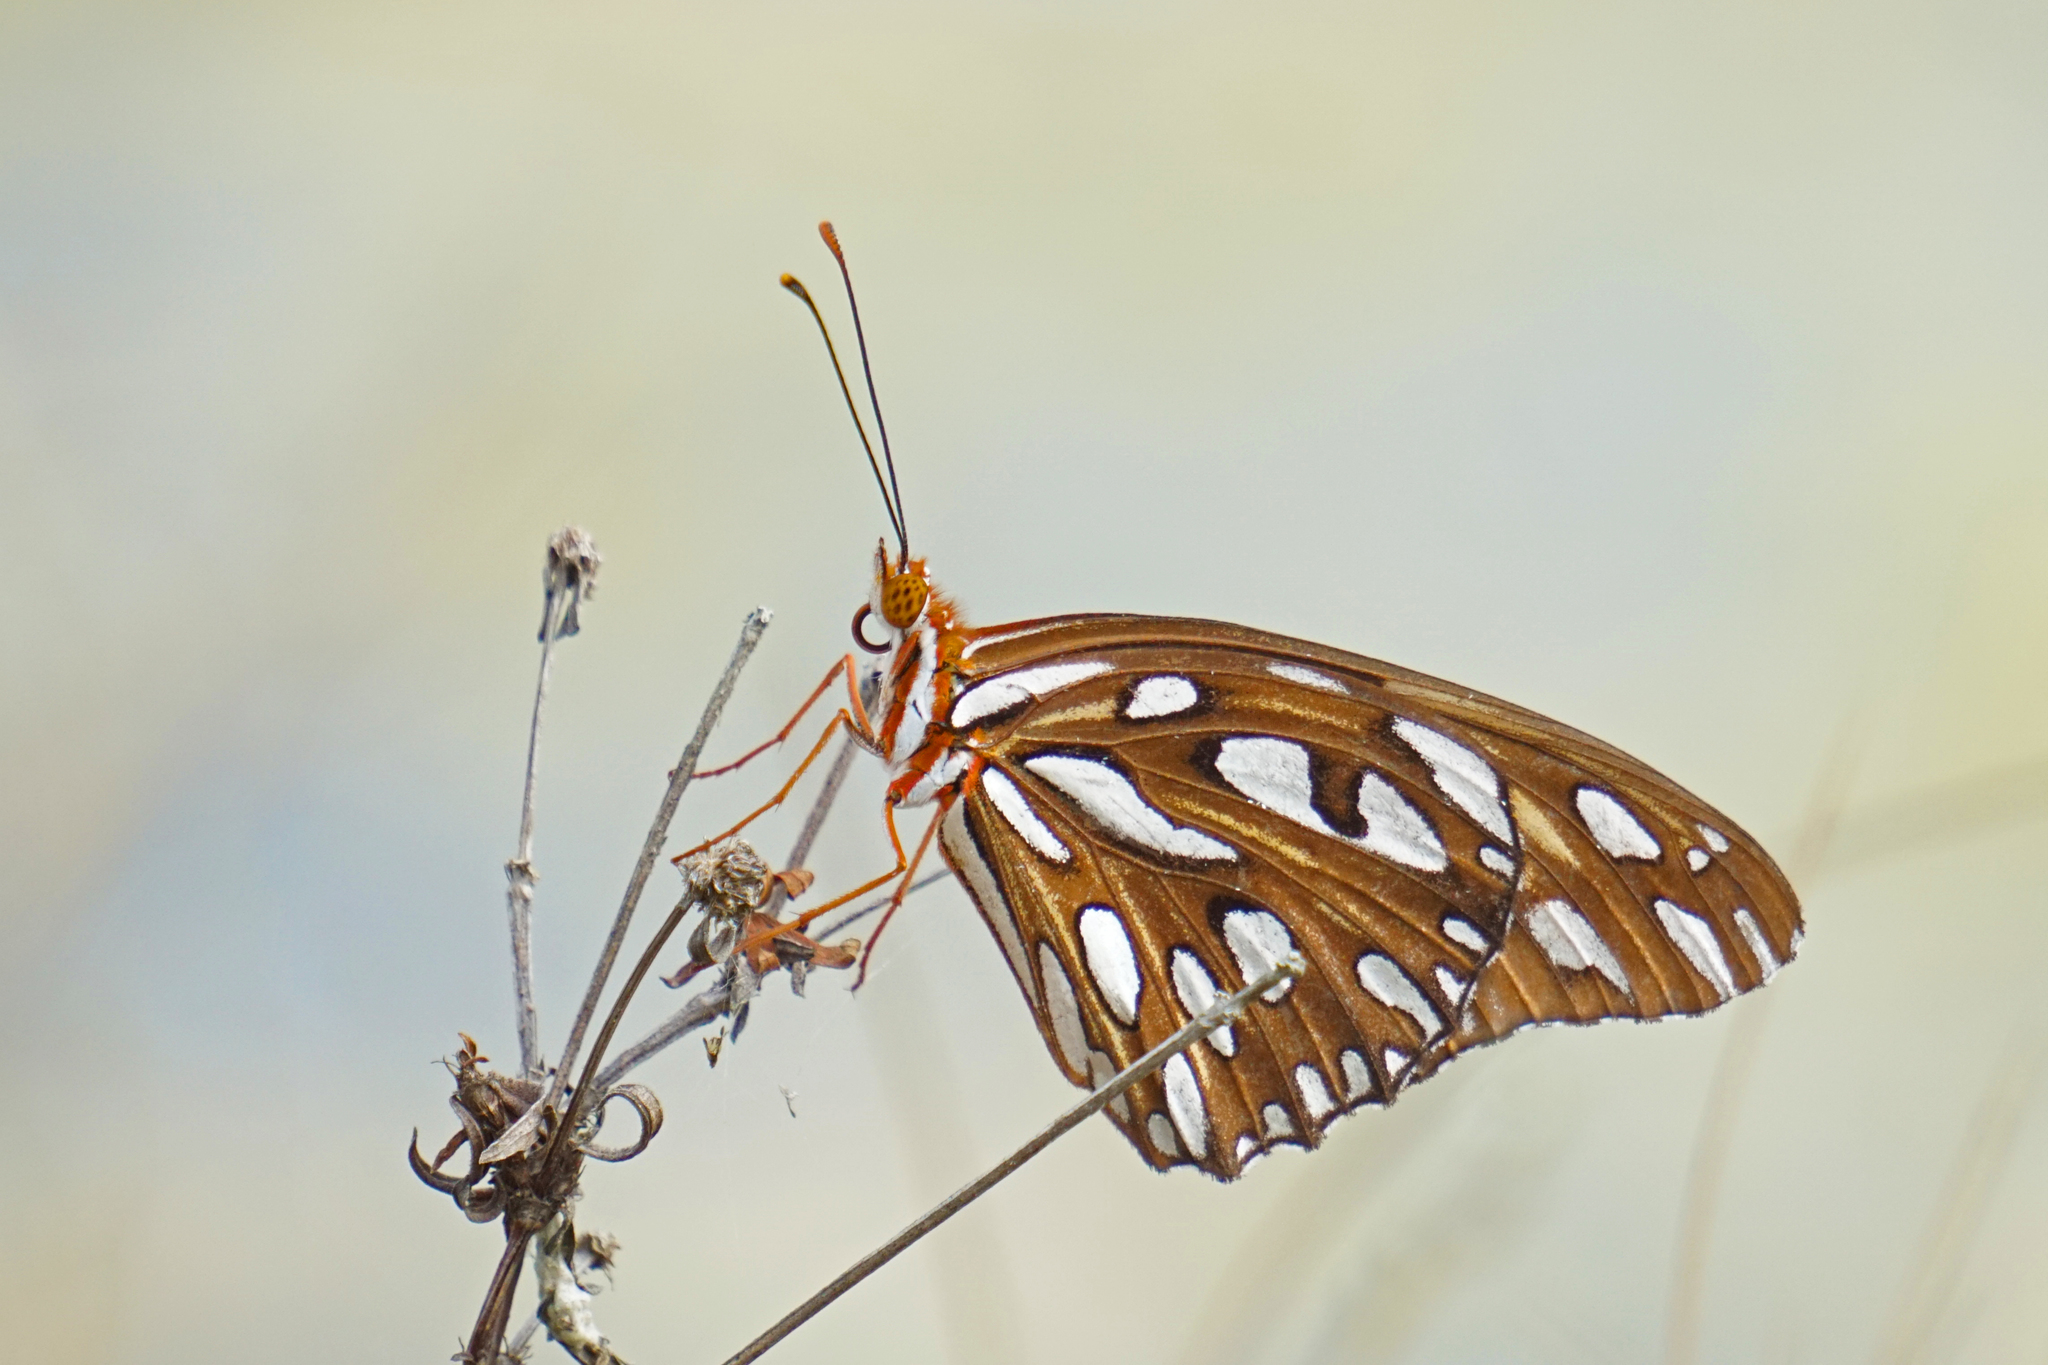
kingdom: Animalia
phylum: Arthropoda
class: Insecta
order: Lepidoptera
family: Nymphalidae
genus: Dione
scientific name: Dione vanillae
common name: Gulf fritillary
